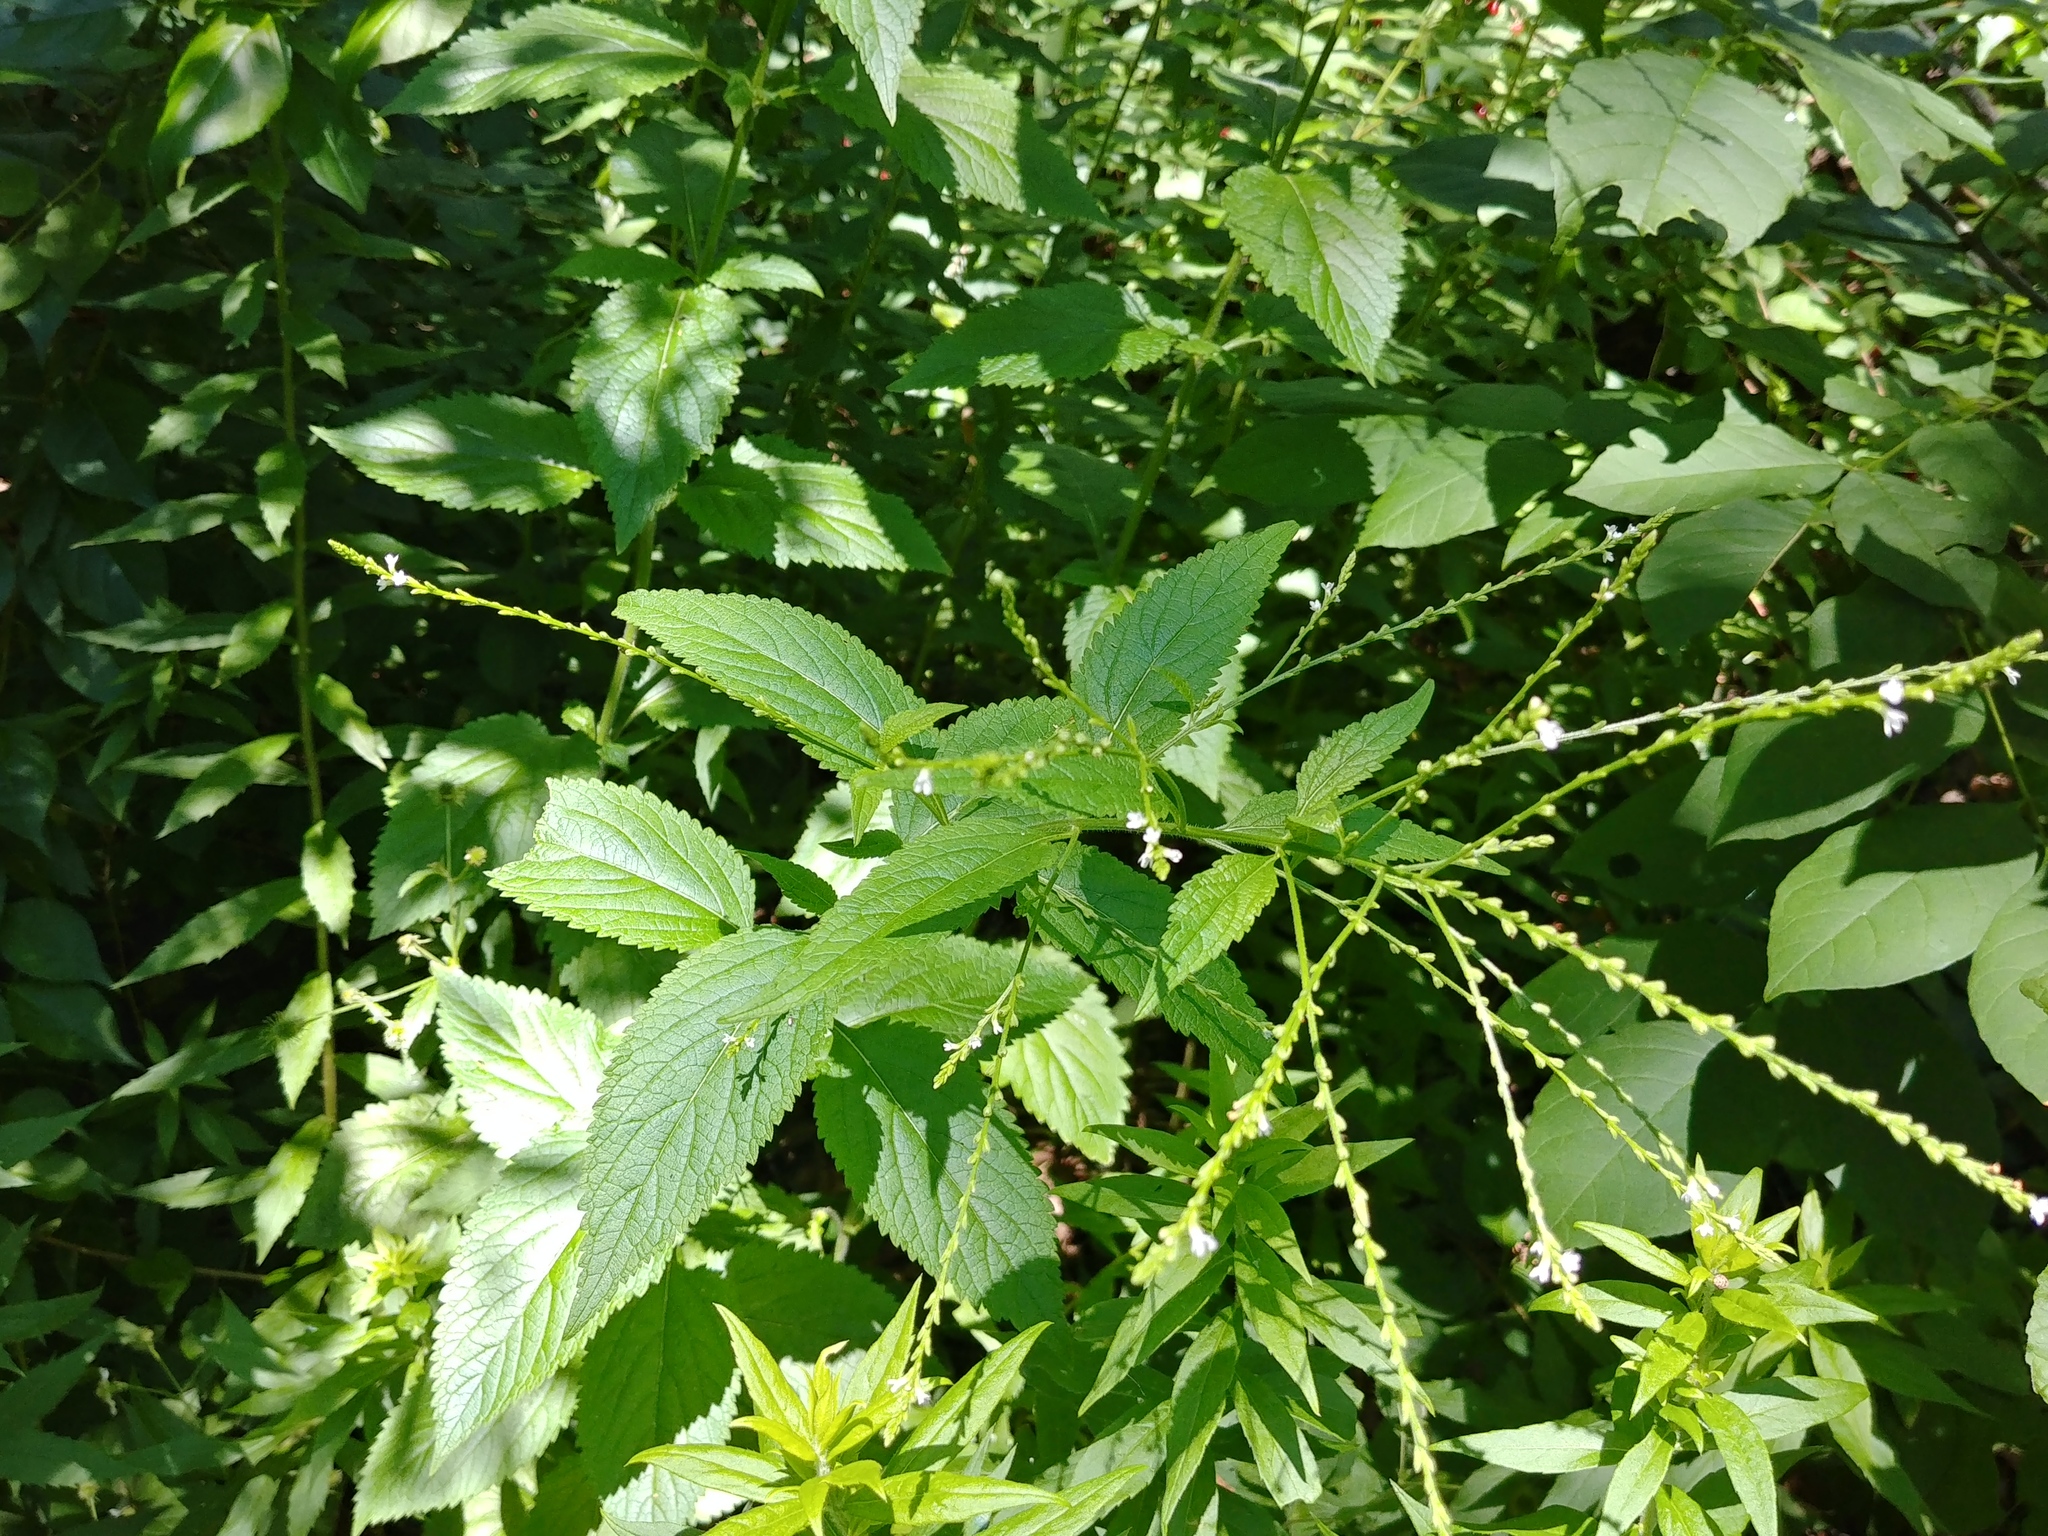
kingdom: Plantae
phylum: Tracheophyta
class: Magnoliopsida
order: Lamiales
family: Verbenaceae
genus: Verbena
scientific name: Verbena urticifolia
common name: Nettle-leaved vervain
